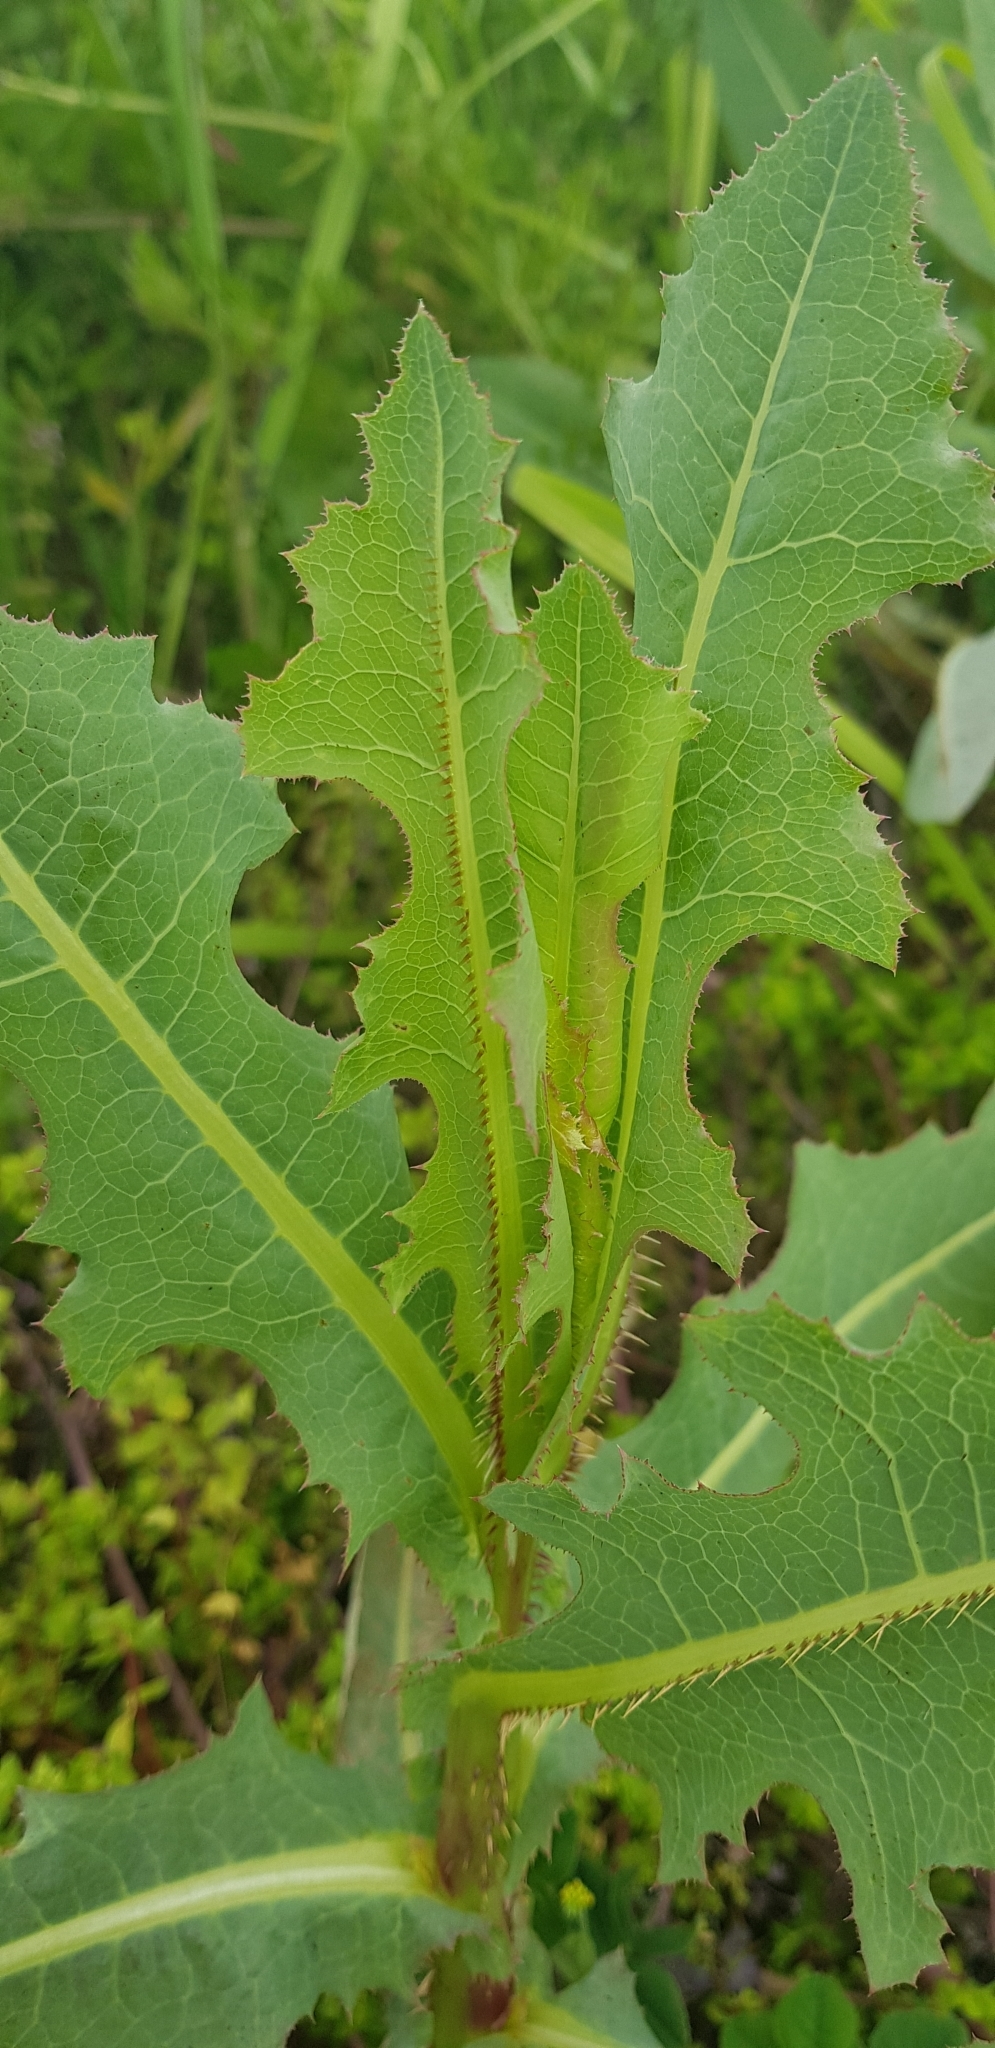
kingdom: Plantae
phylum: Tracheophyta
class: Magnoliopsida
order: Asterales
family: Asteraceae
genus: Lactuca
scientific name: Lactuca serriola
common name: Prickly lettuce
